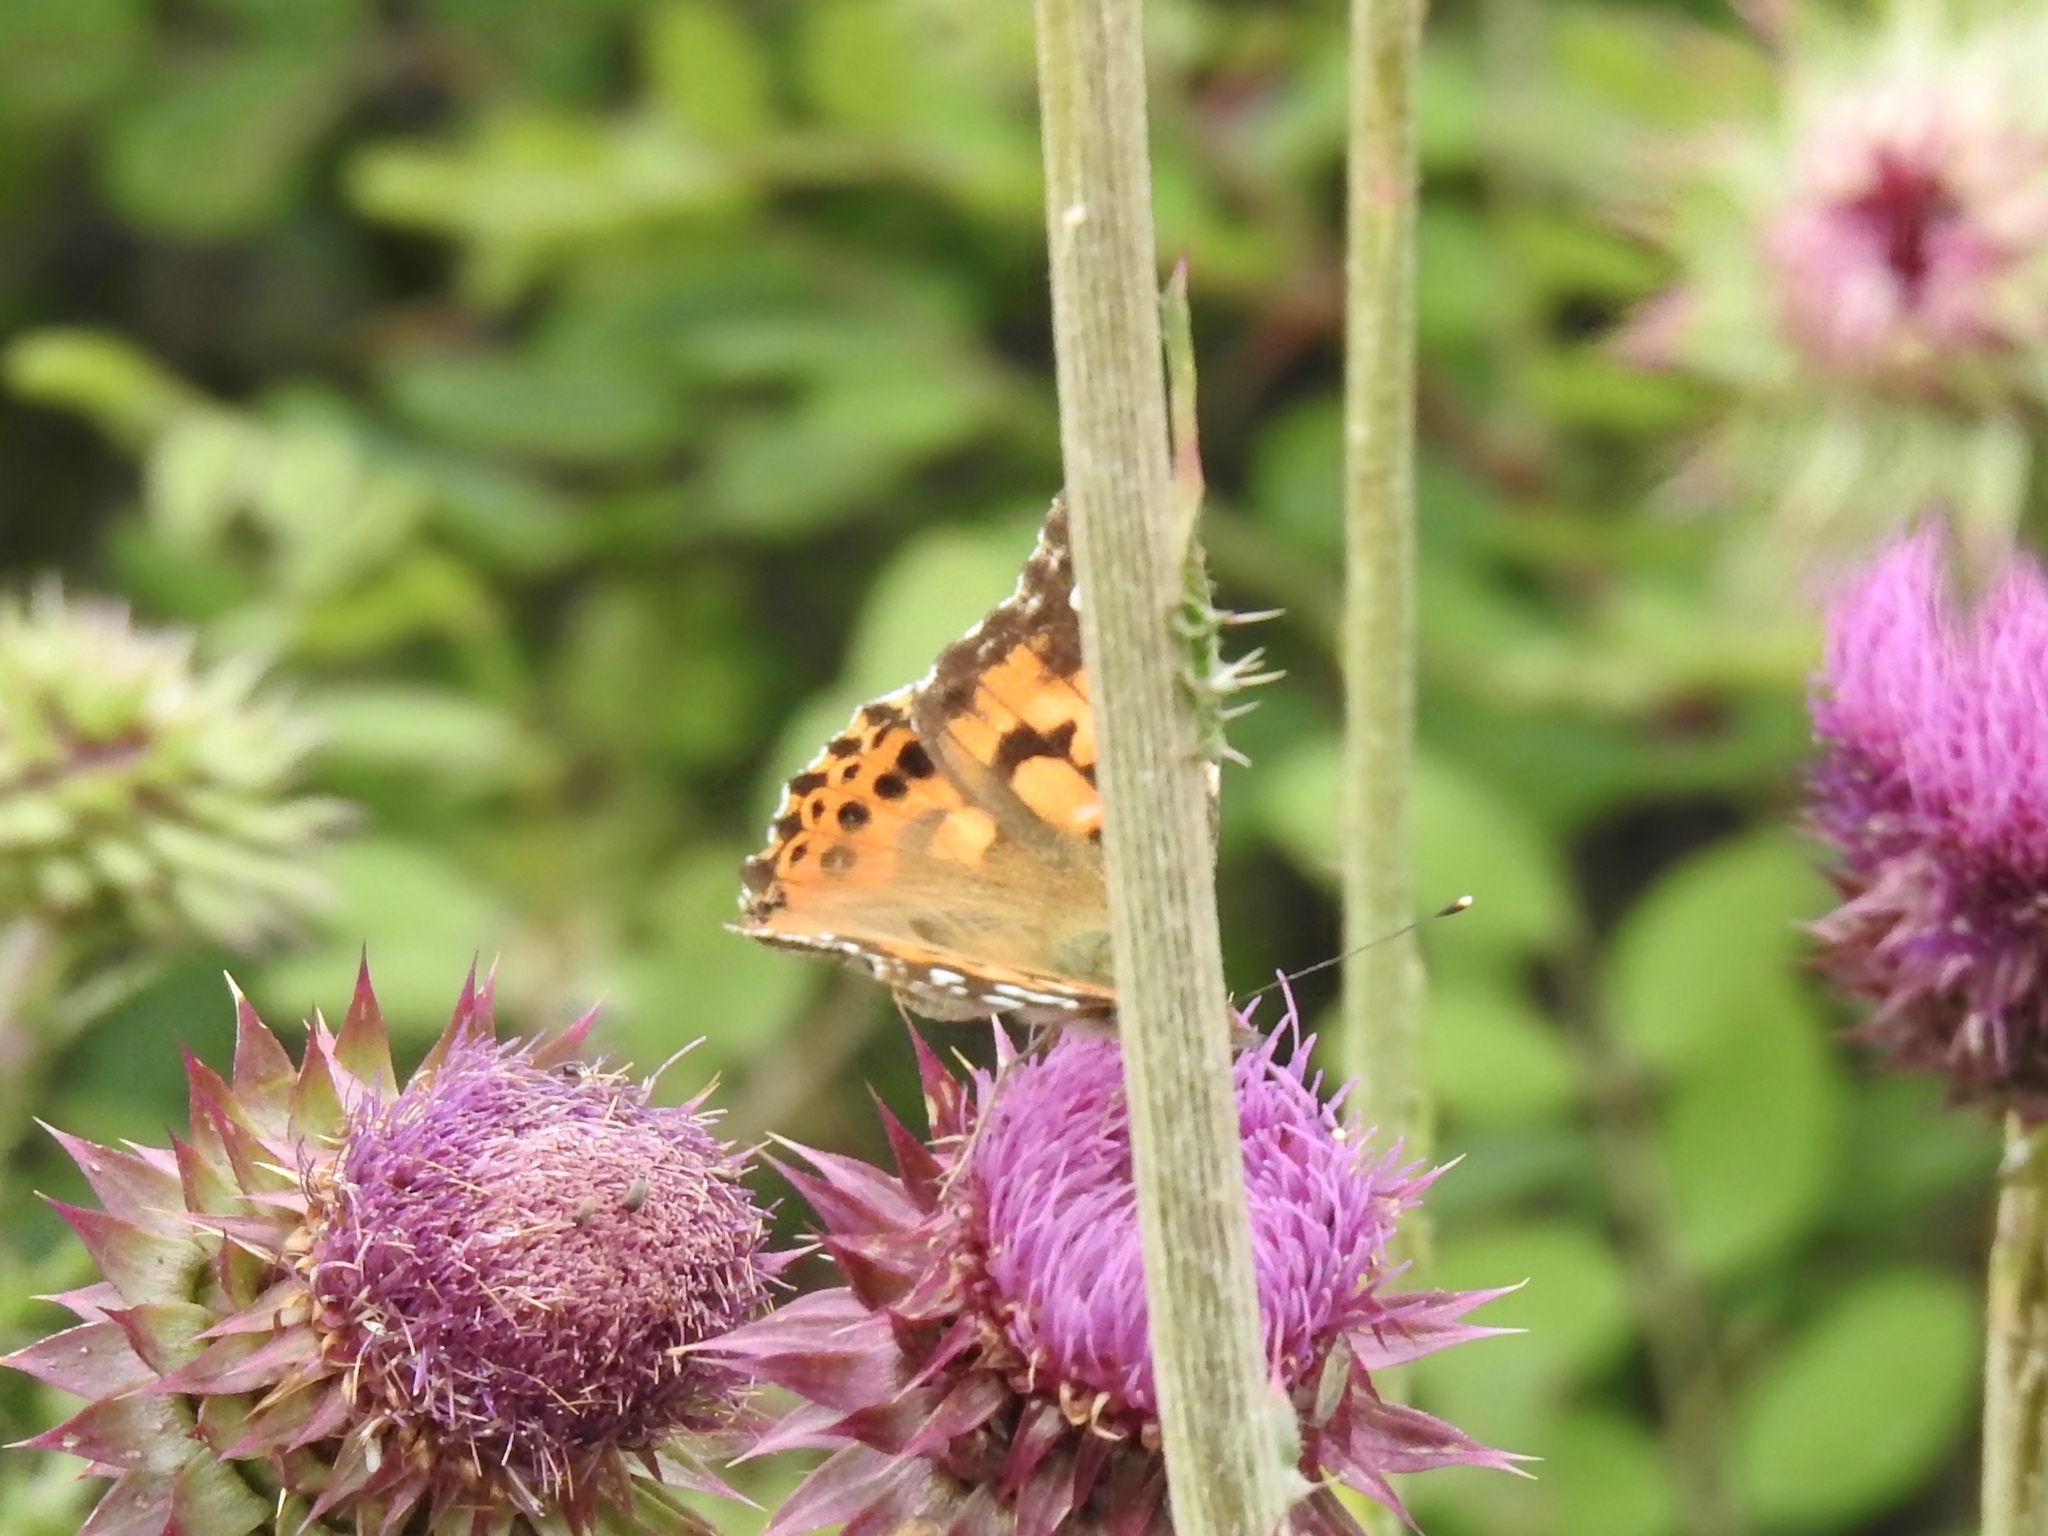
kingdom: Animalia
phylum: Arthropoda
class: Insecta
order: Lepidoptera
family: Nymphalidae
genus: Vanessa
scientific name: Vanessa cardui
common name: Painted lady
